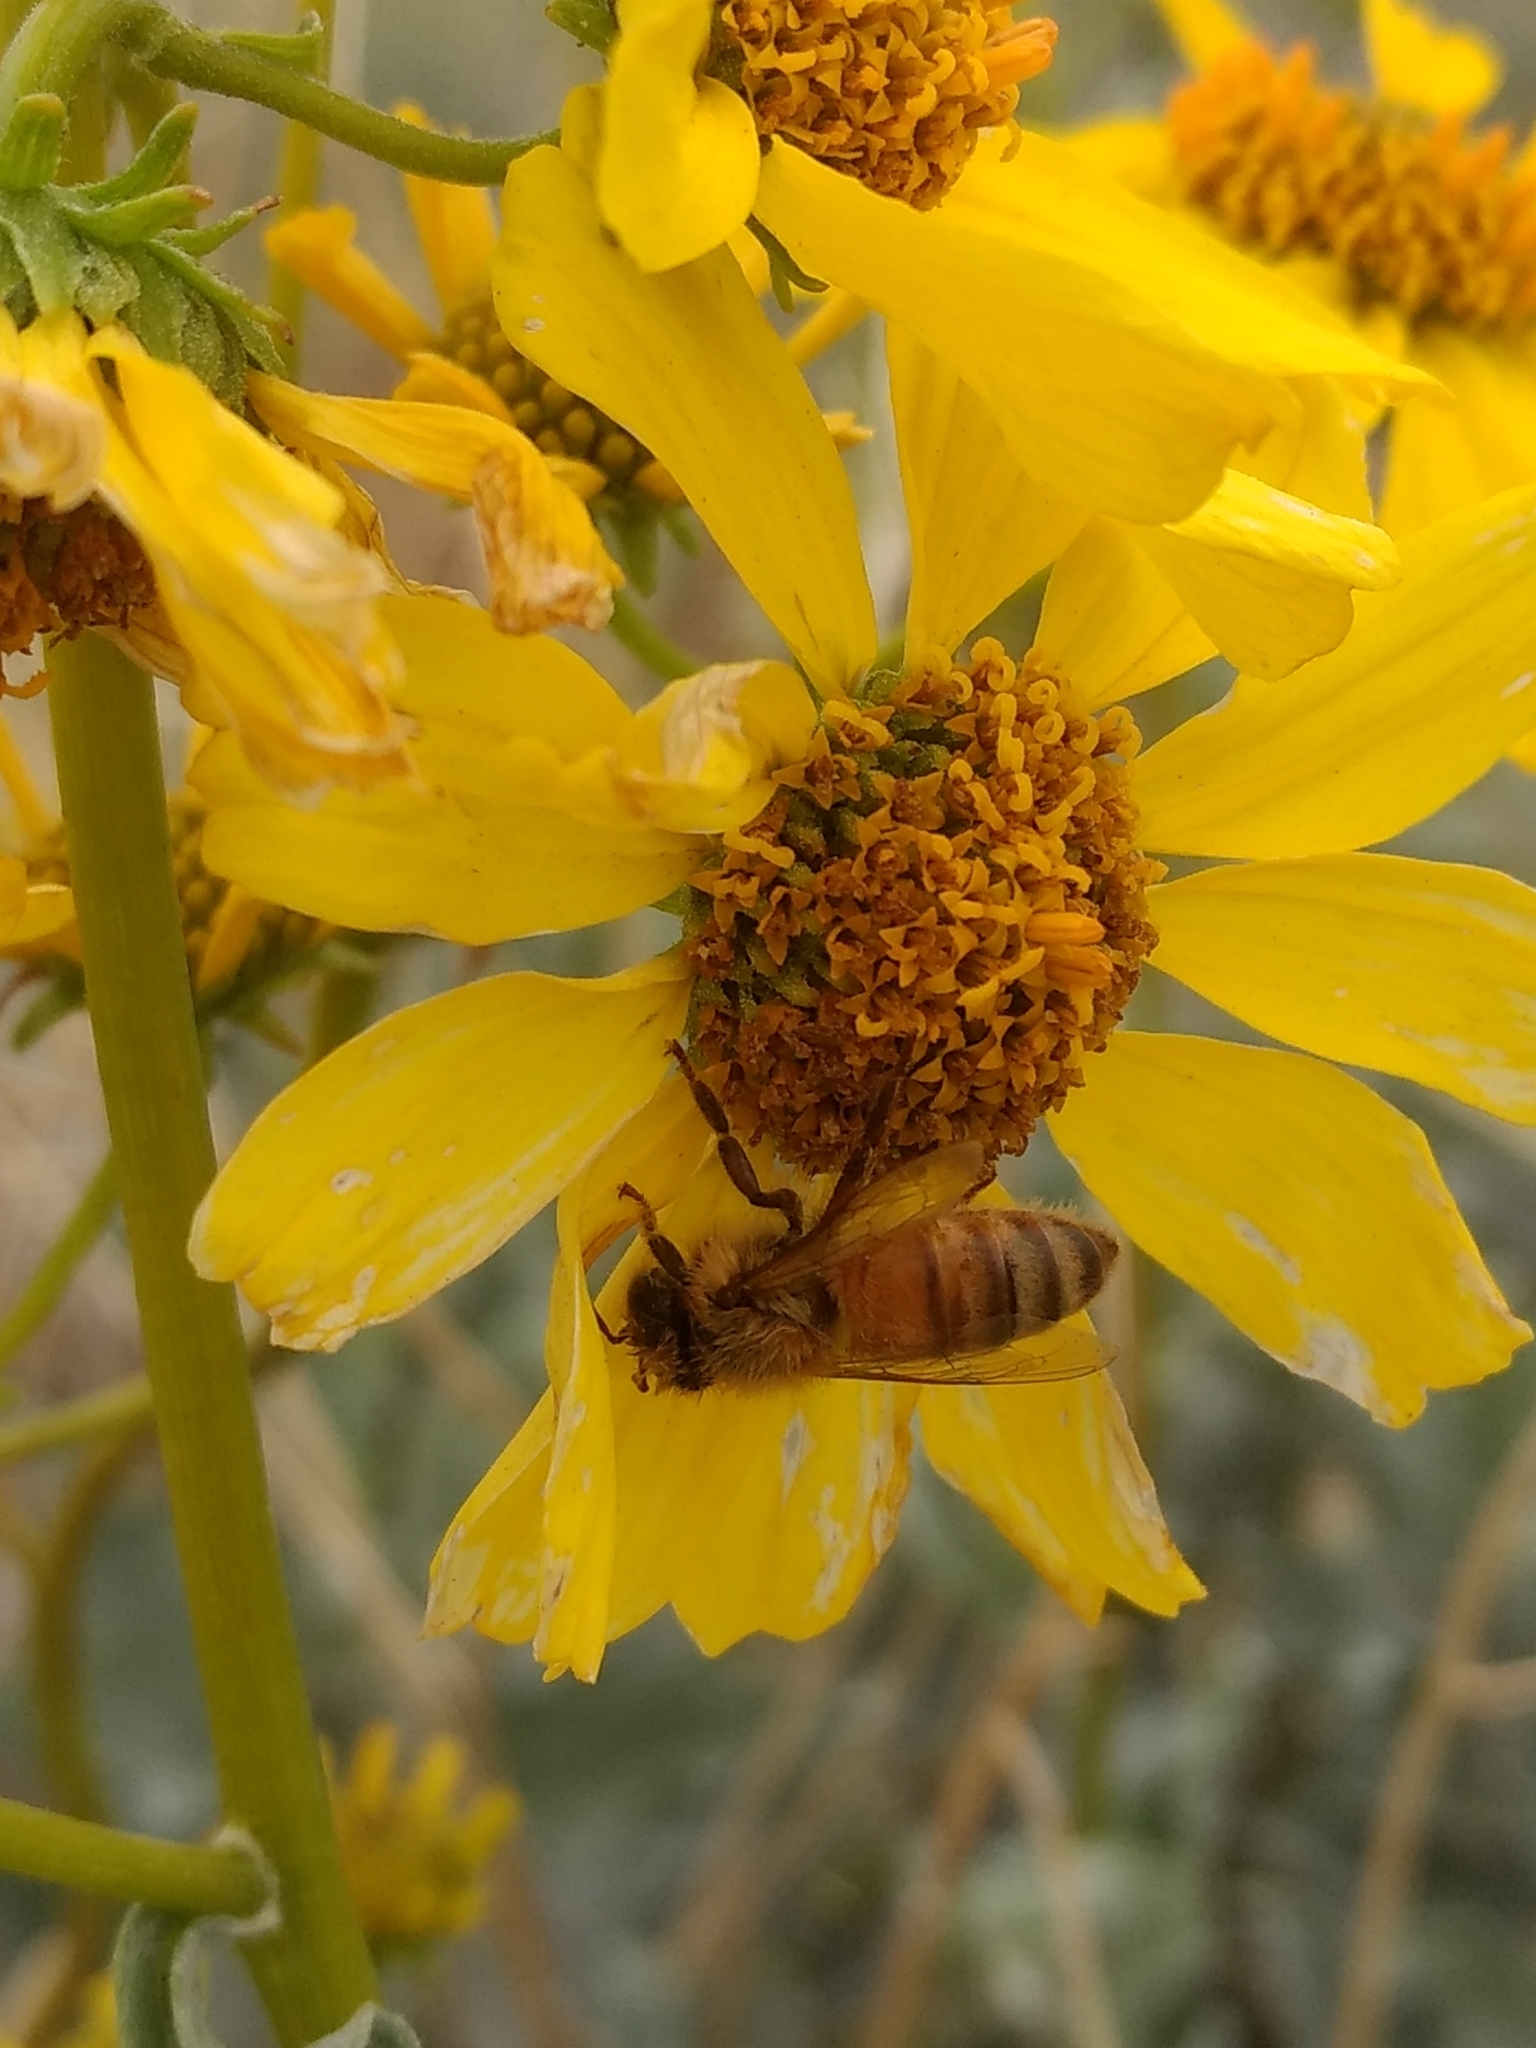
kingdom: Animalia
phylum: Arthropoda
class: Insecta
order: Hymenoptera
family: Apidae
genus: Apis
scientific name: Apis mellifera
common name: Honey bee
